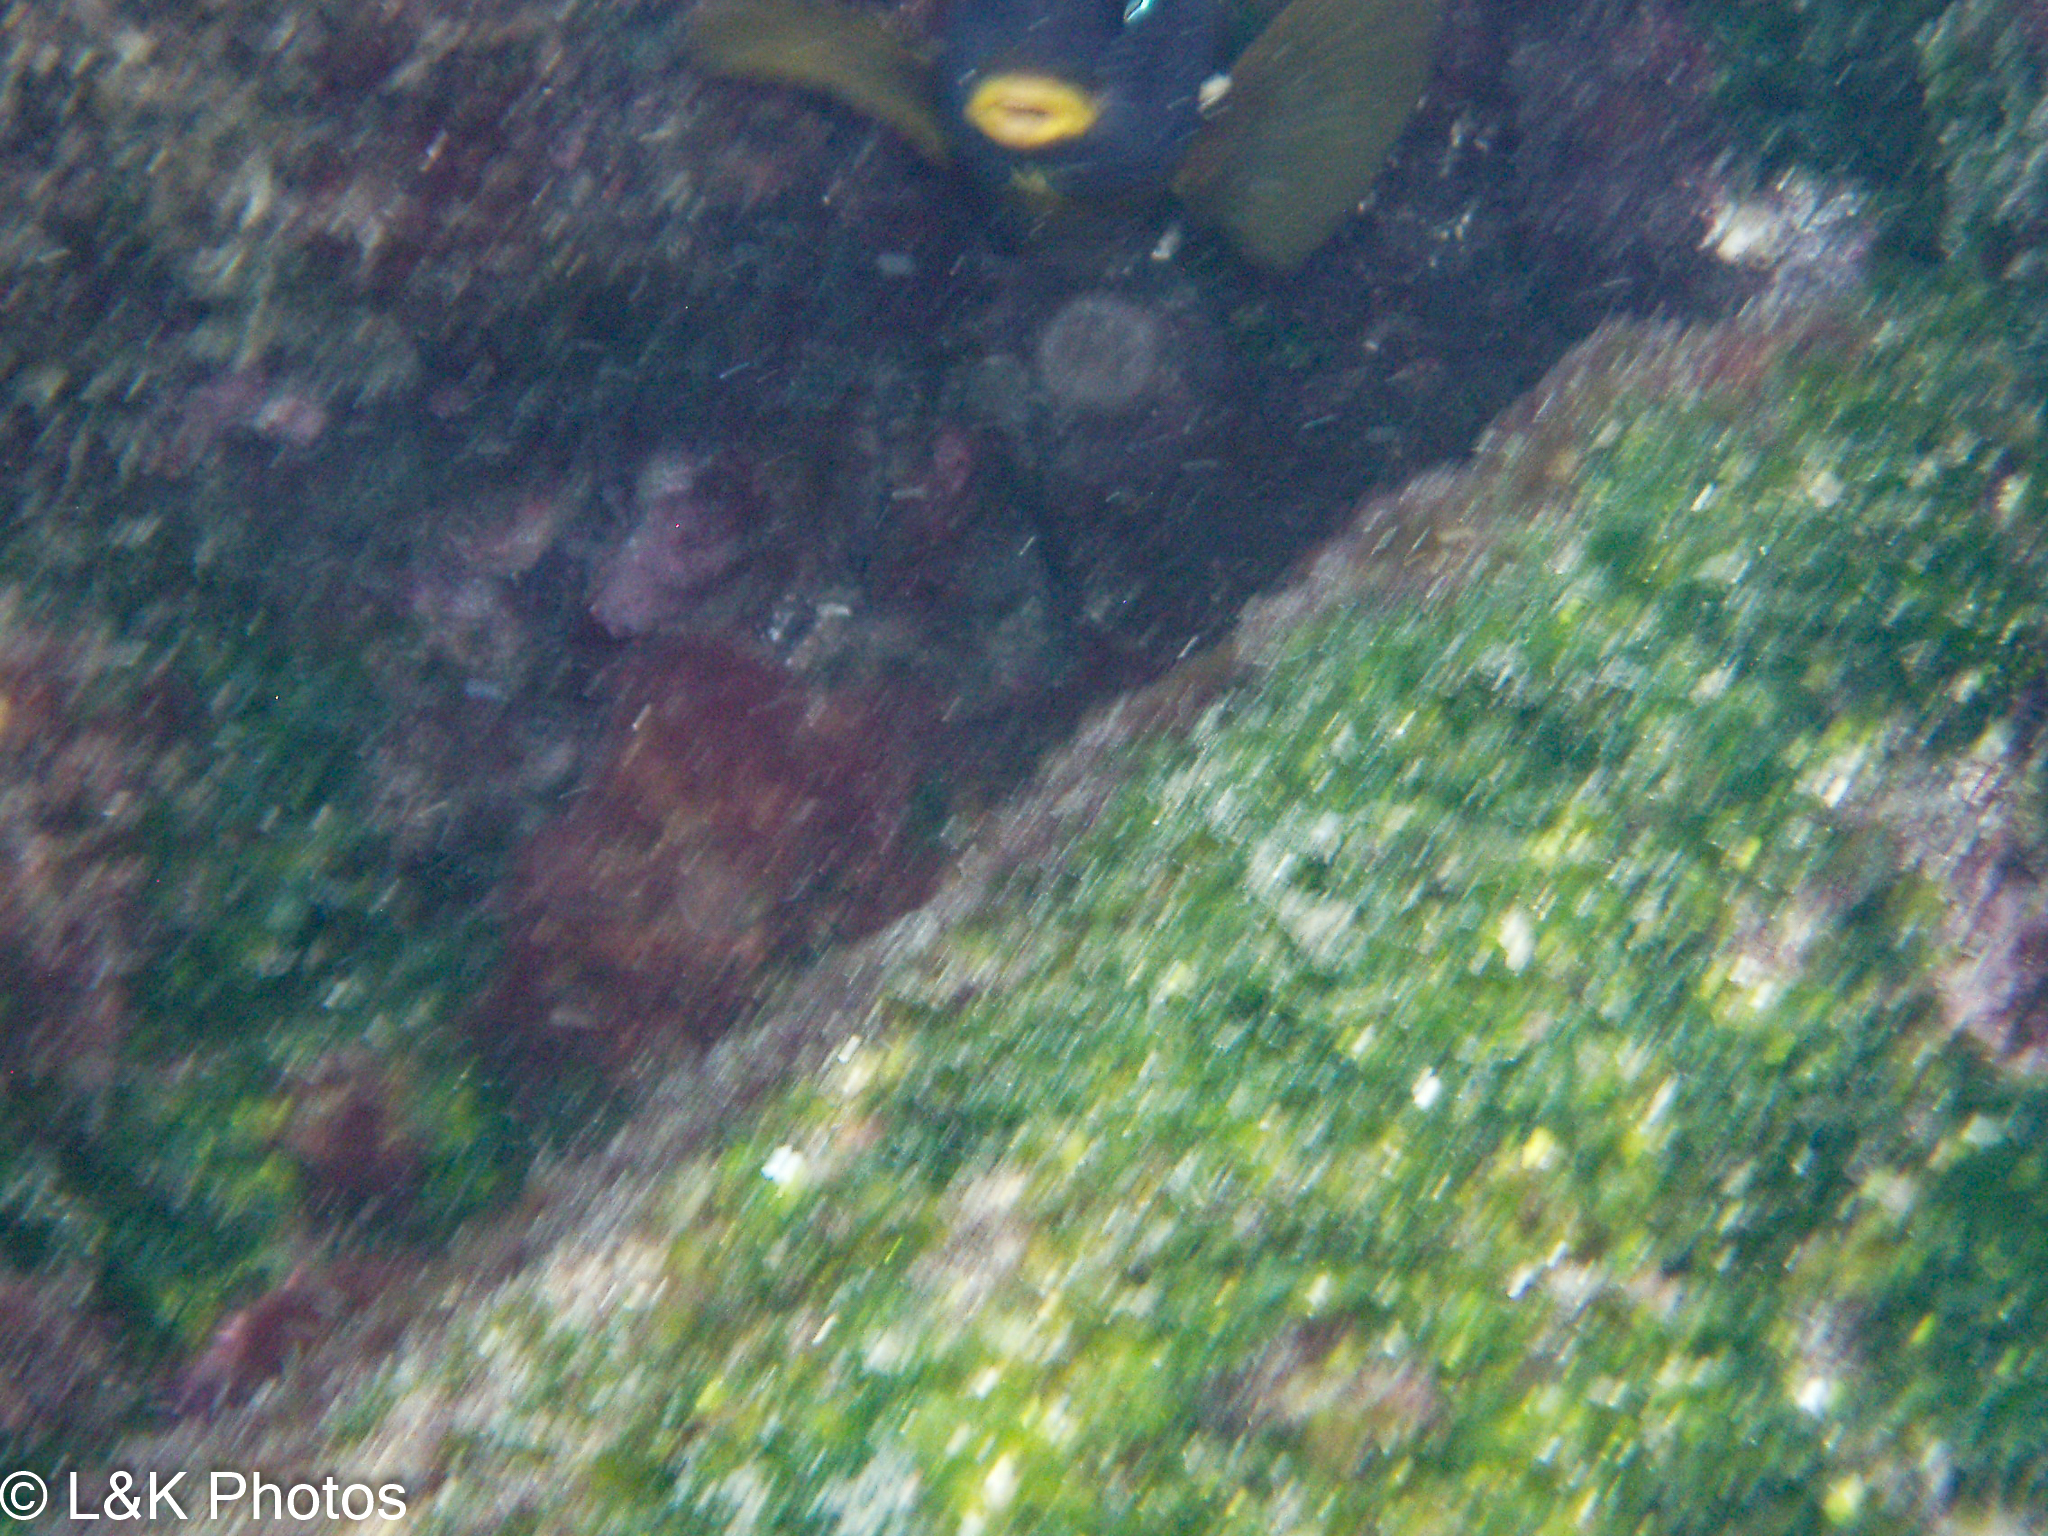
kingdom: Animalia
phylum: Chordata
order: Perciformes
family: Pomacentridae
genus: Stegastes
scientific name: Stegastes arcifrons
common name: Galapagos gregory
